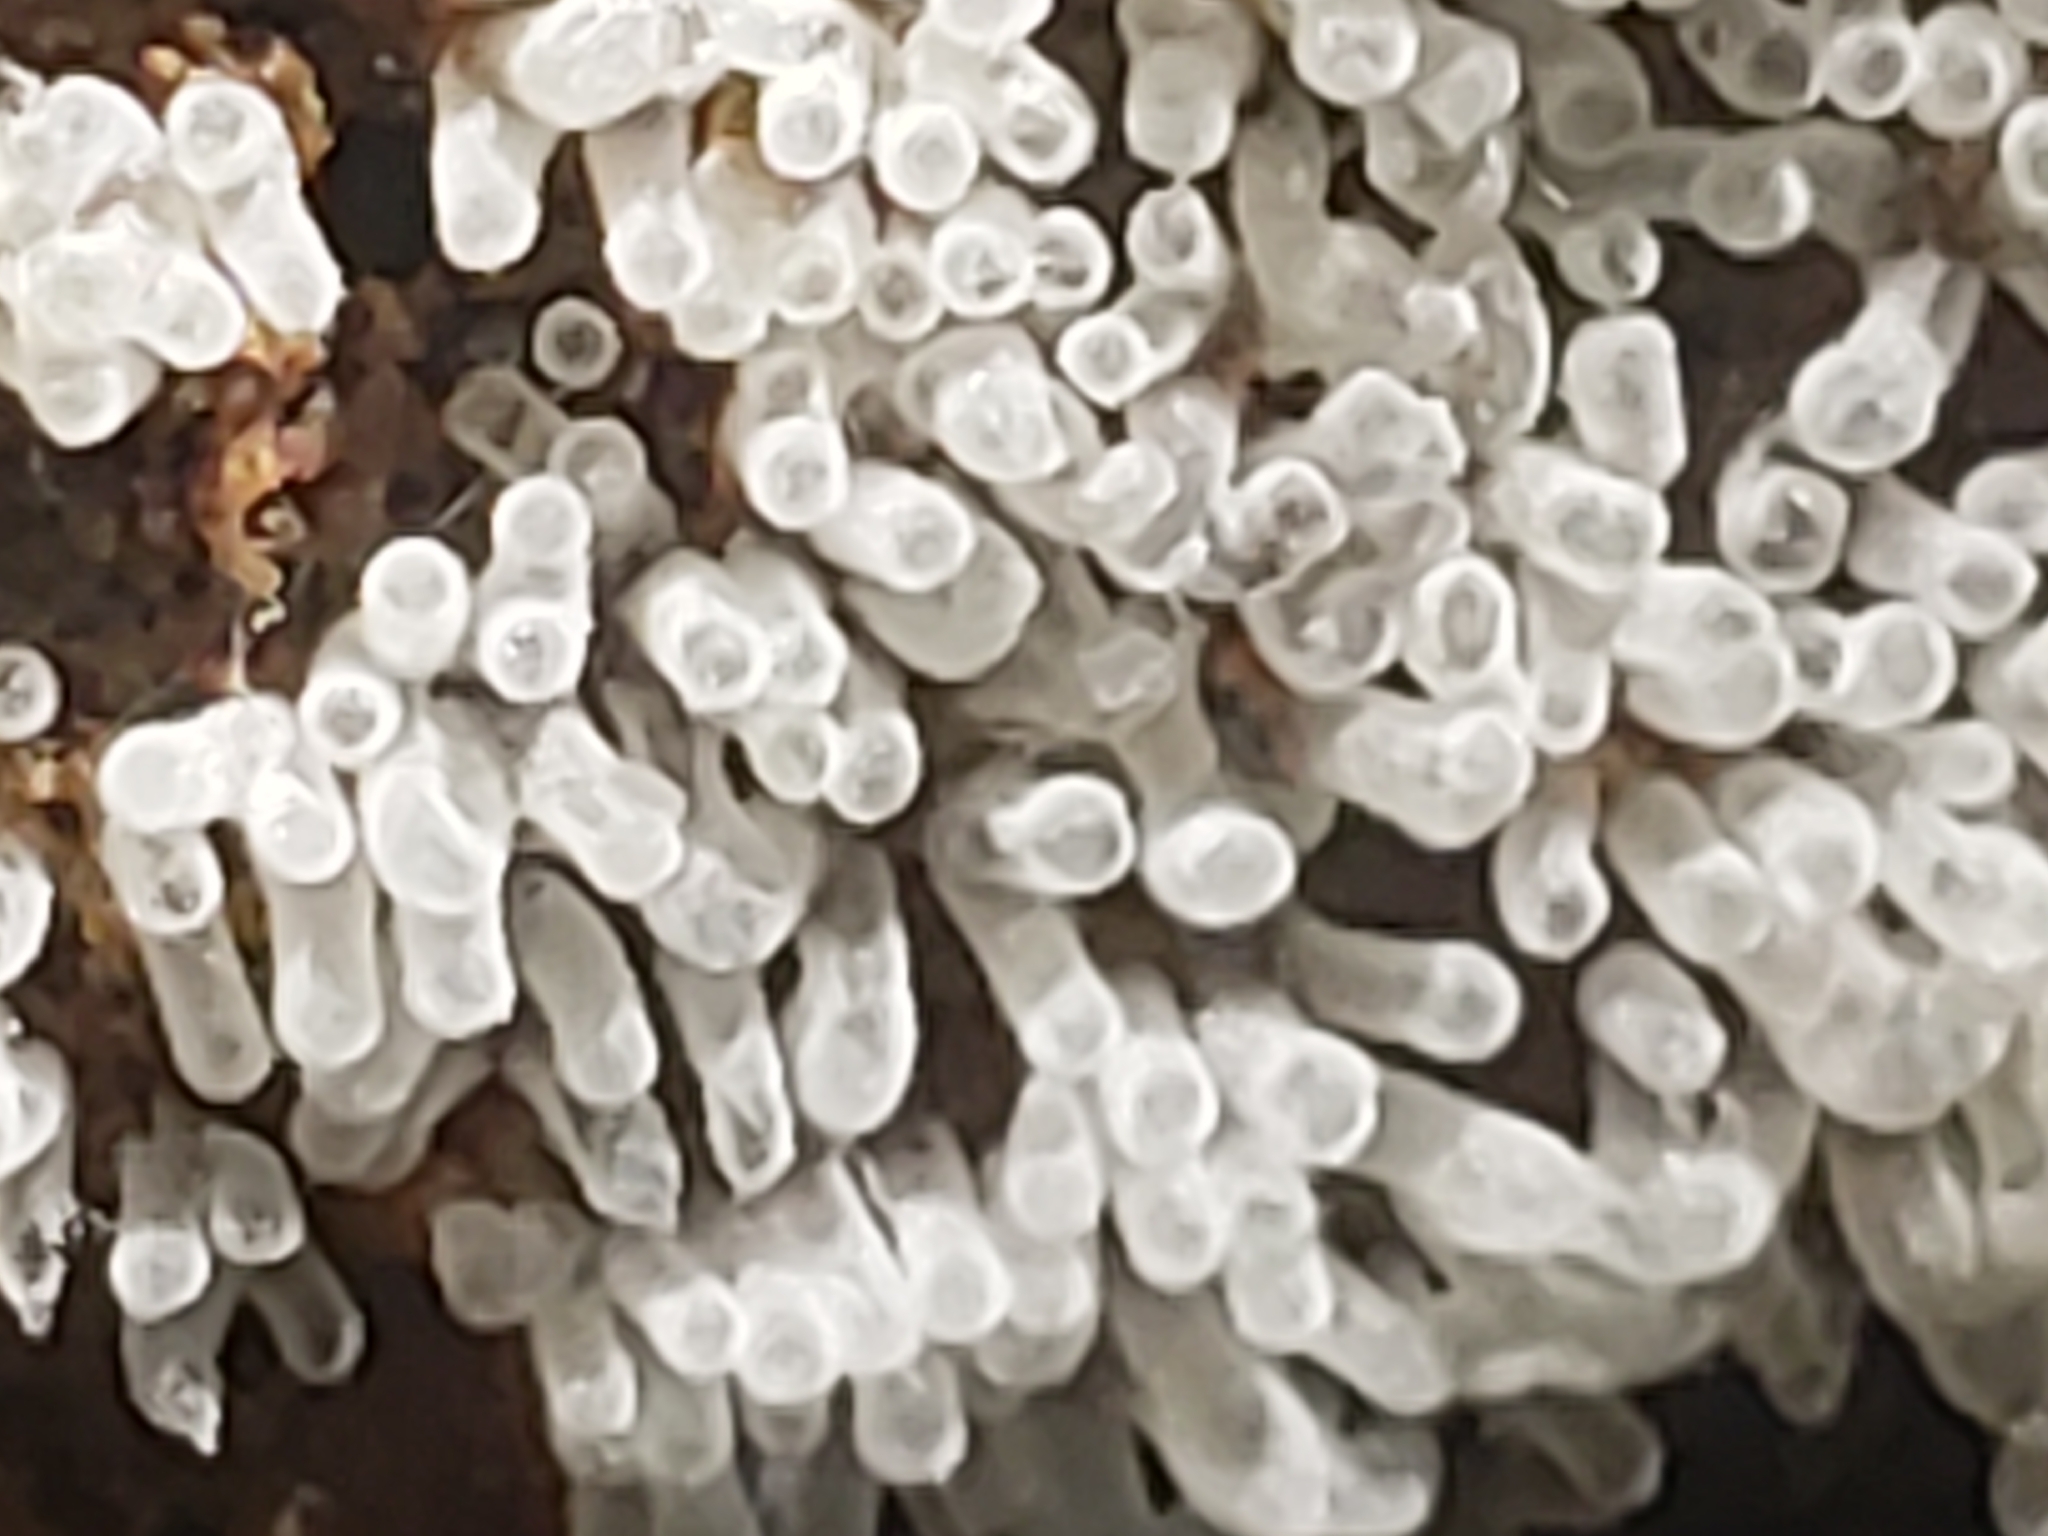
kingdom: Protozoa
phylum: Mycetozoa
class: Protosteliomycetes
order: Ceratiomyxales
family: Ceratiomyxaceae
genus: Ceratiomyxa
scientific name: Ceratiomyxa fruticulosa
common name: Honeycomb coral slime mold
